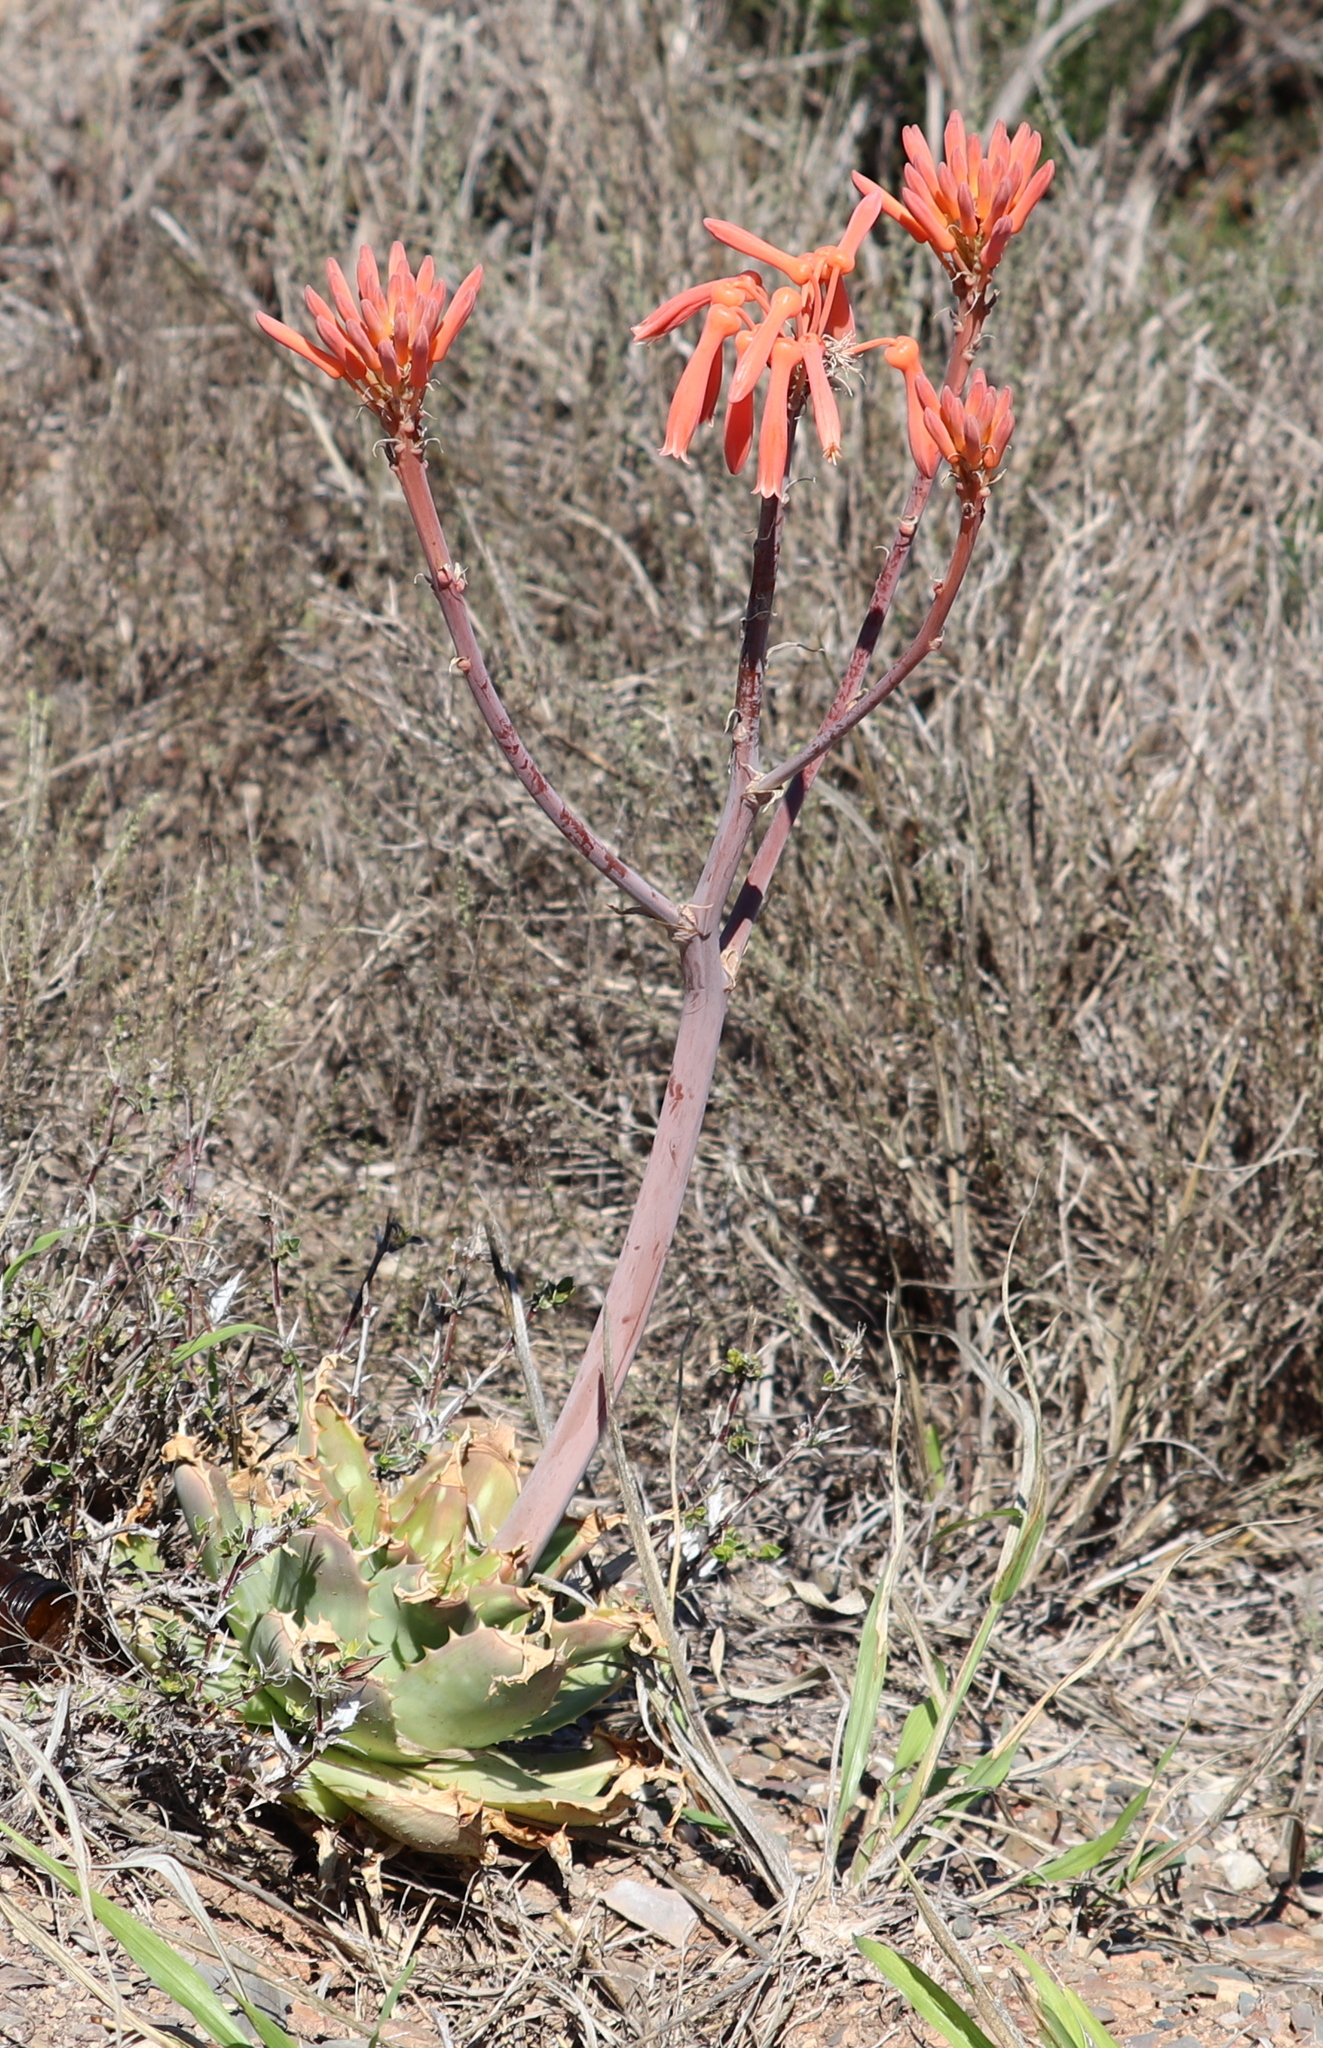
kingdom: Plantae
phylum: Tracheophyta
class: Liliopsida
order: Asparagales
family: Asphodelaceae
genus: Aloe
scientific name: Aloe maculata
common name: Broadleaf aloe
